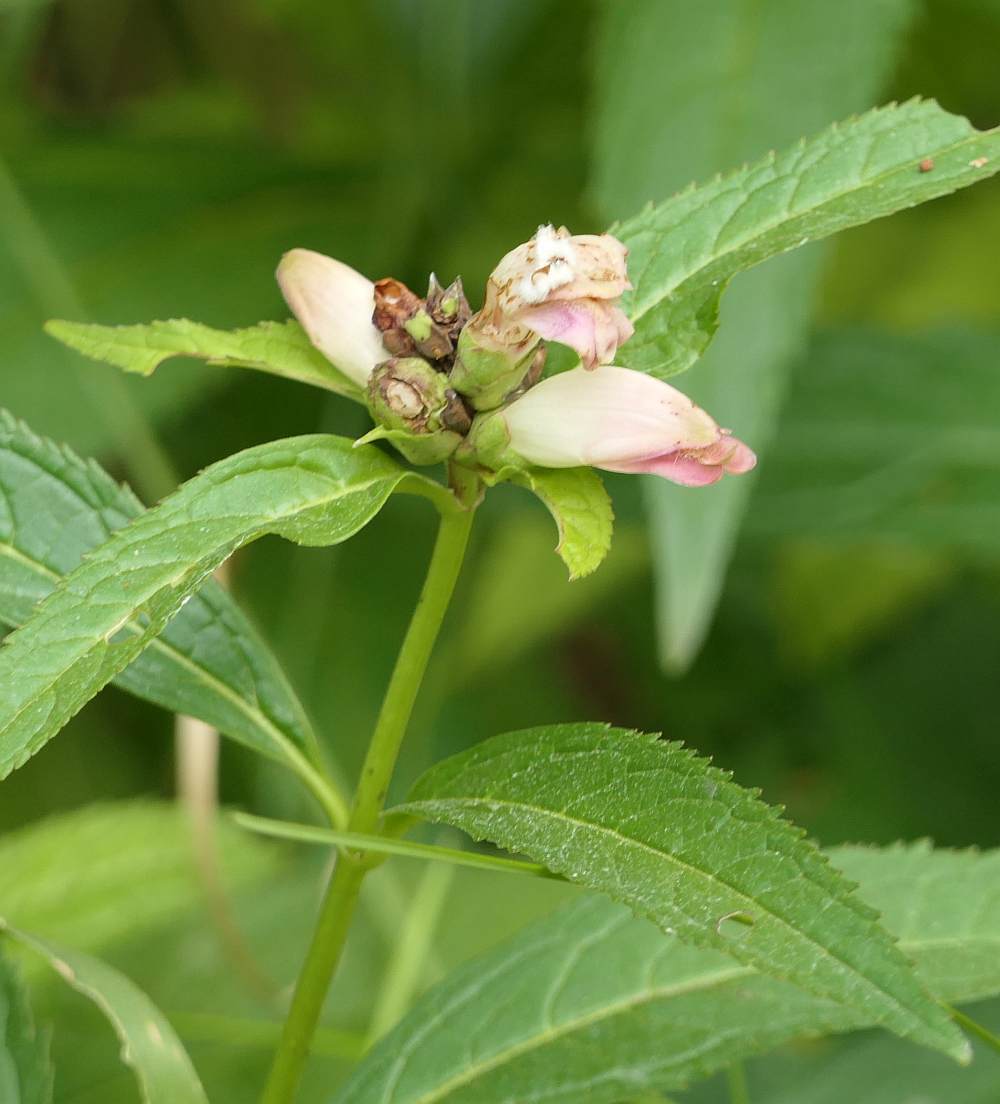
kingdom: Plantae
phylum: Tracheophyta
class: Magnoliopsida
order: Lamiales
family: Plantaginaceae
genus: Chelone
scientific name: Chelone glabra
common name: Snakehead
